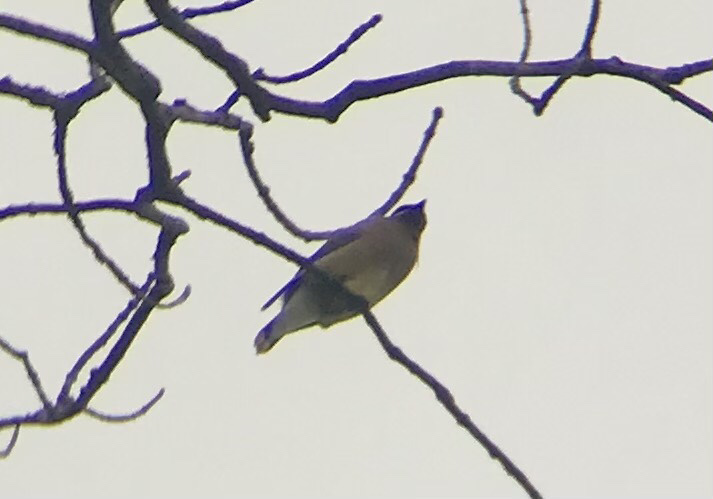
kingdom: Animalia
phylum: Chordata
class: Aves
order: Passeriformes
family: Bombycillidae
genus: Bombycilla
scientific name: Bombycilla cedrorum
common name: Cedar waxwing
